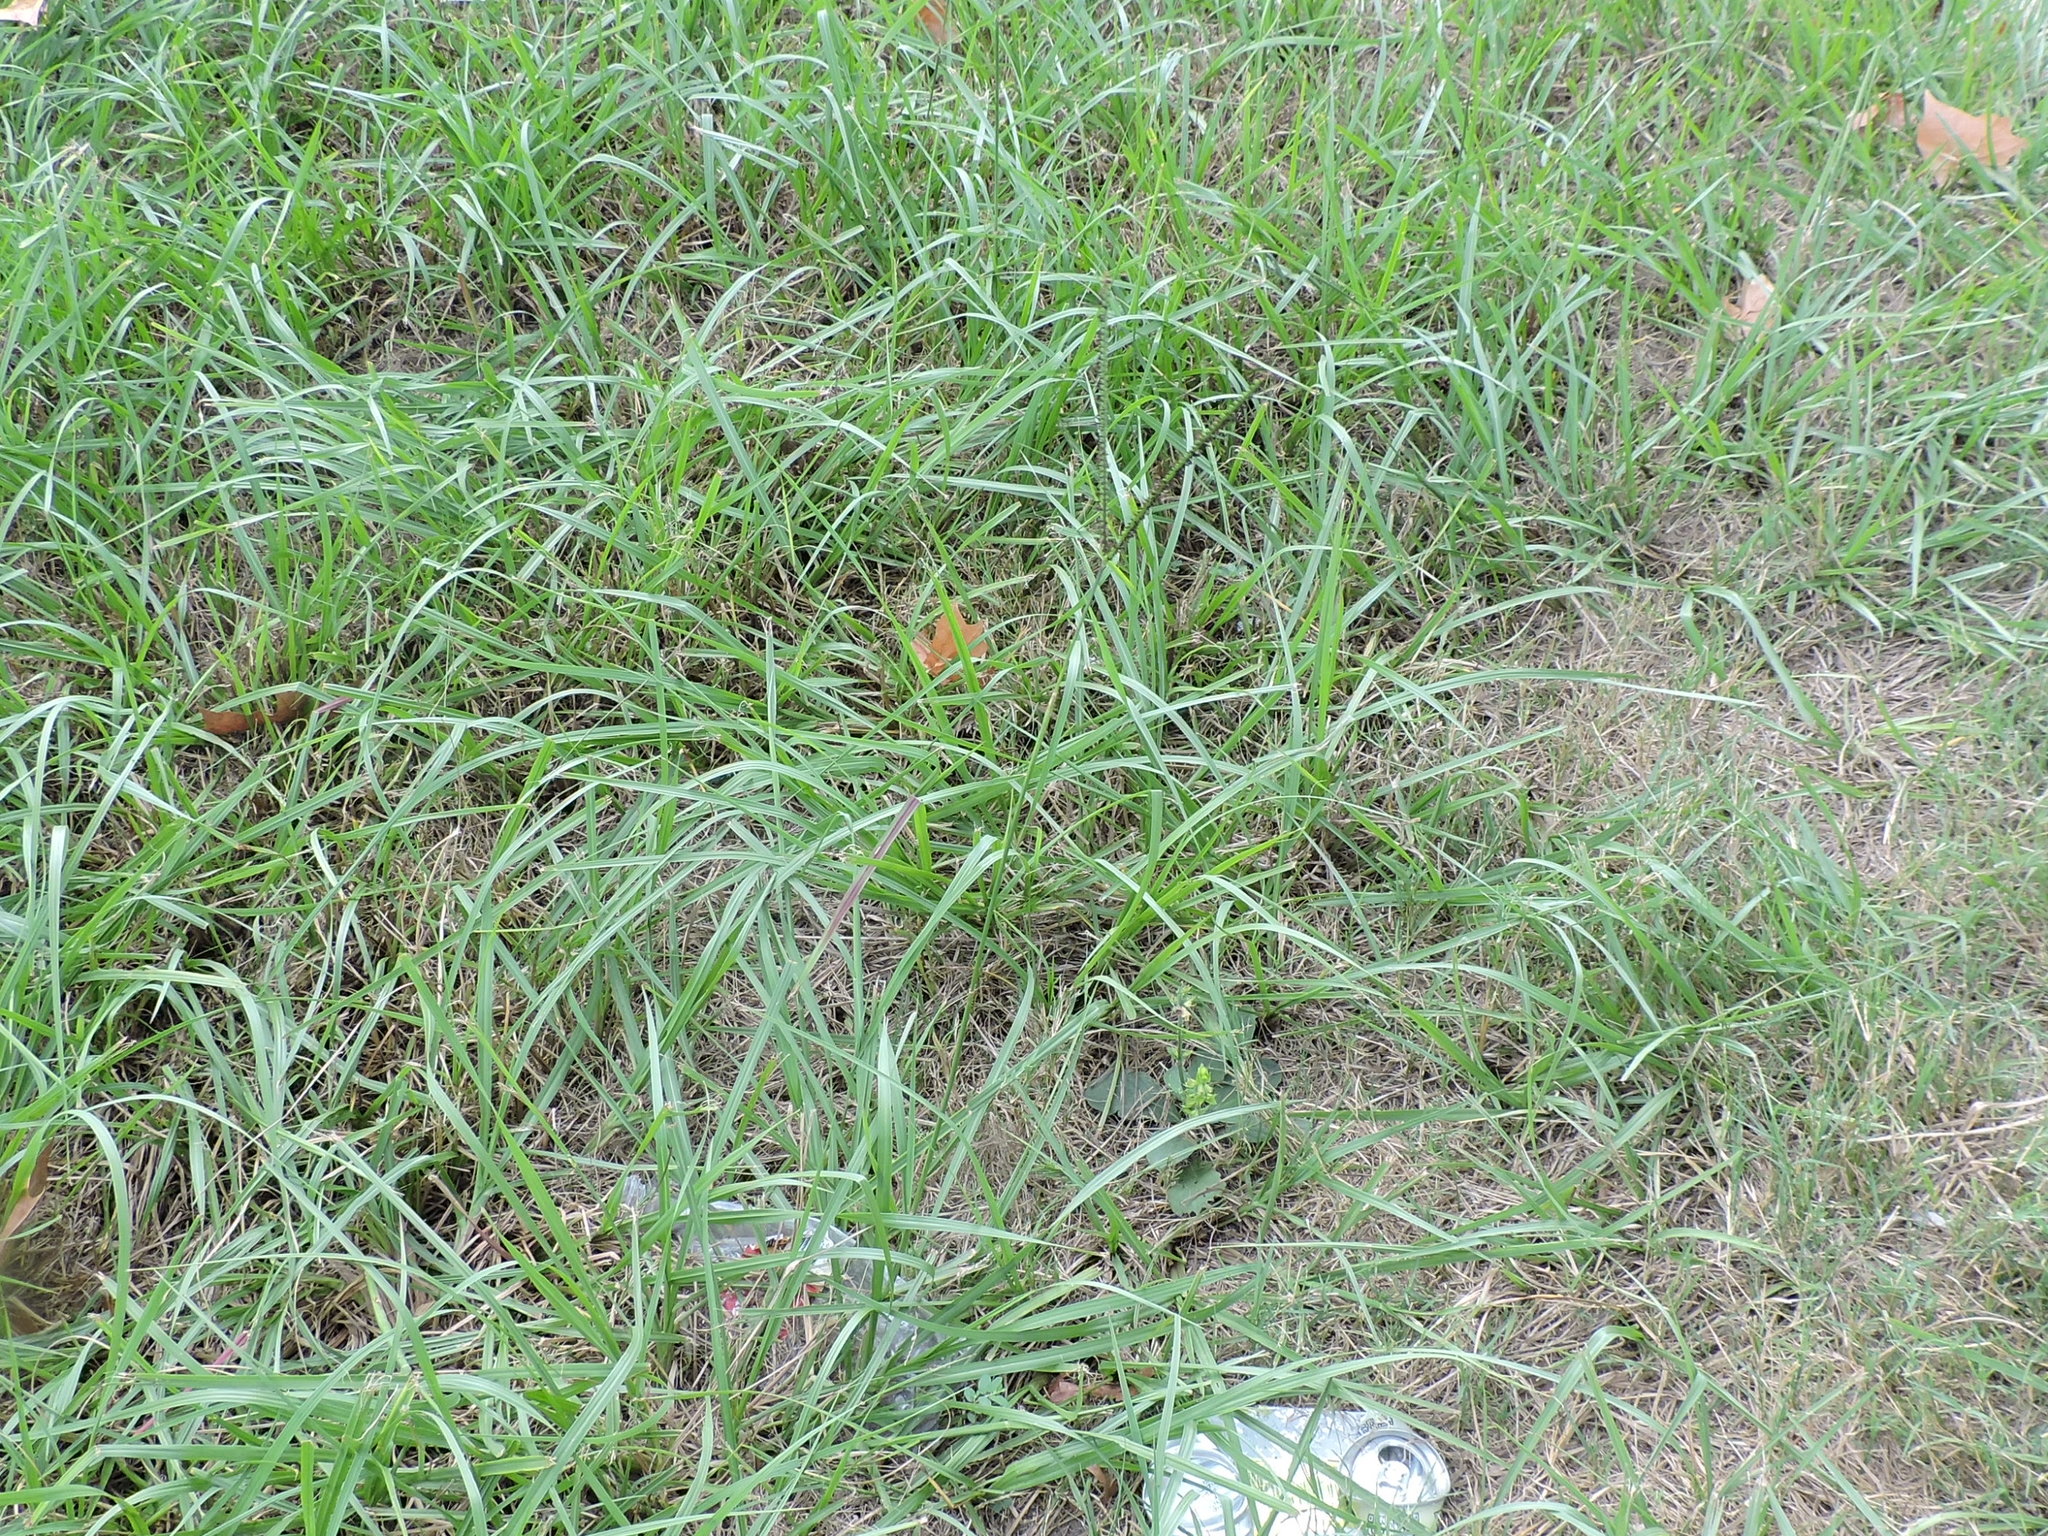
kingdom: Plantae
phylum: Tracheophyta
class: Liliopsida
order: Poales
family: Poaceae
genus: Paspalum
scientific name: Paspalum notatum
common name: Bahiagrass
